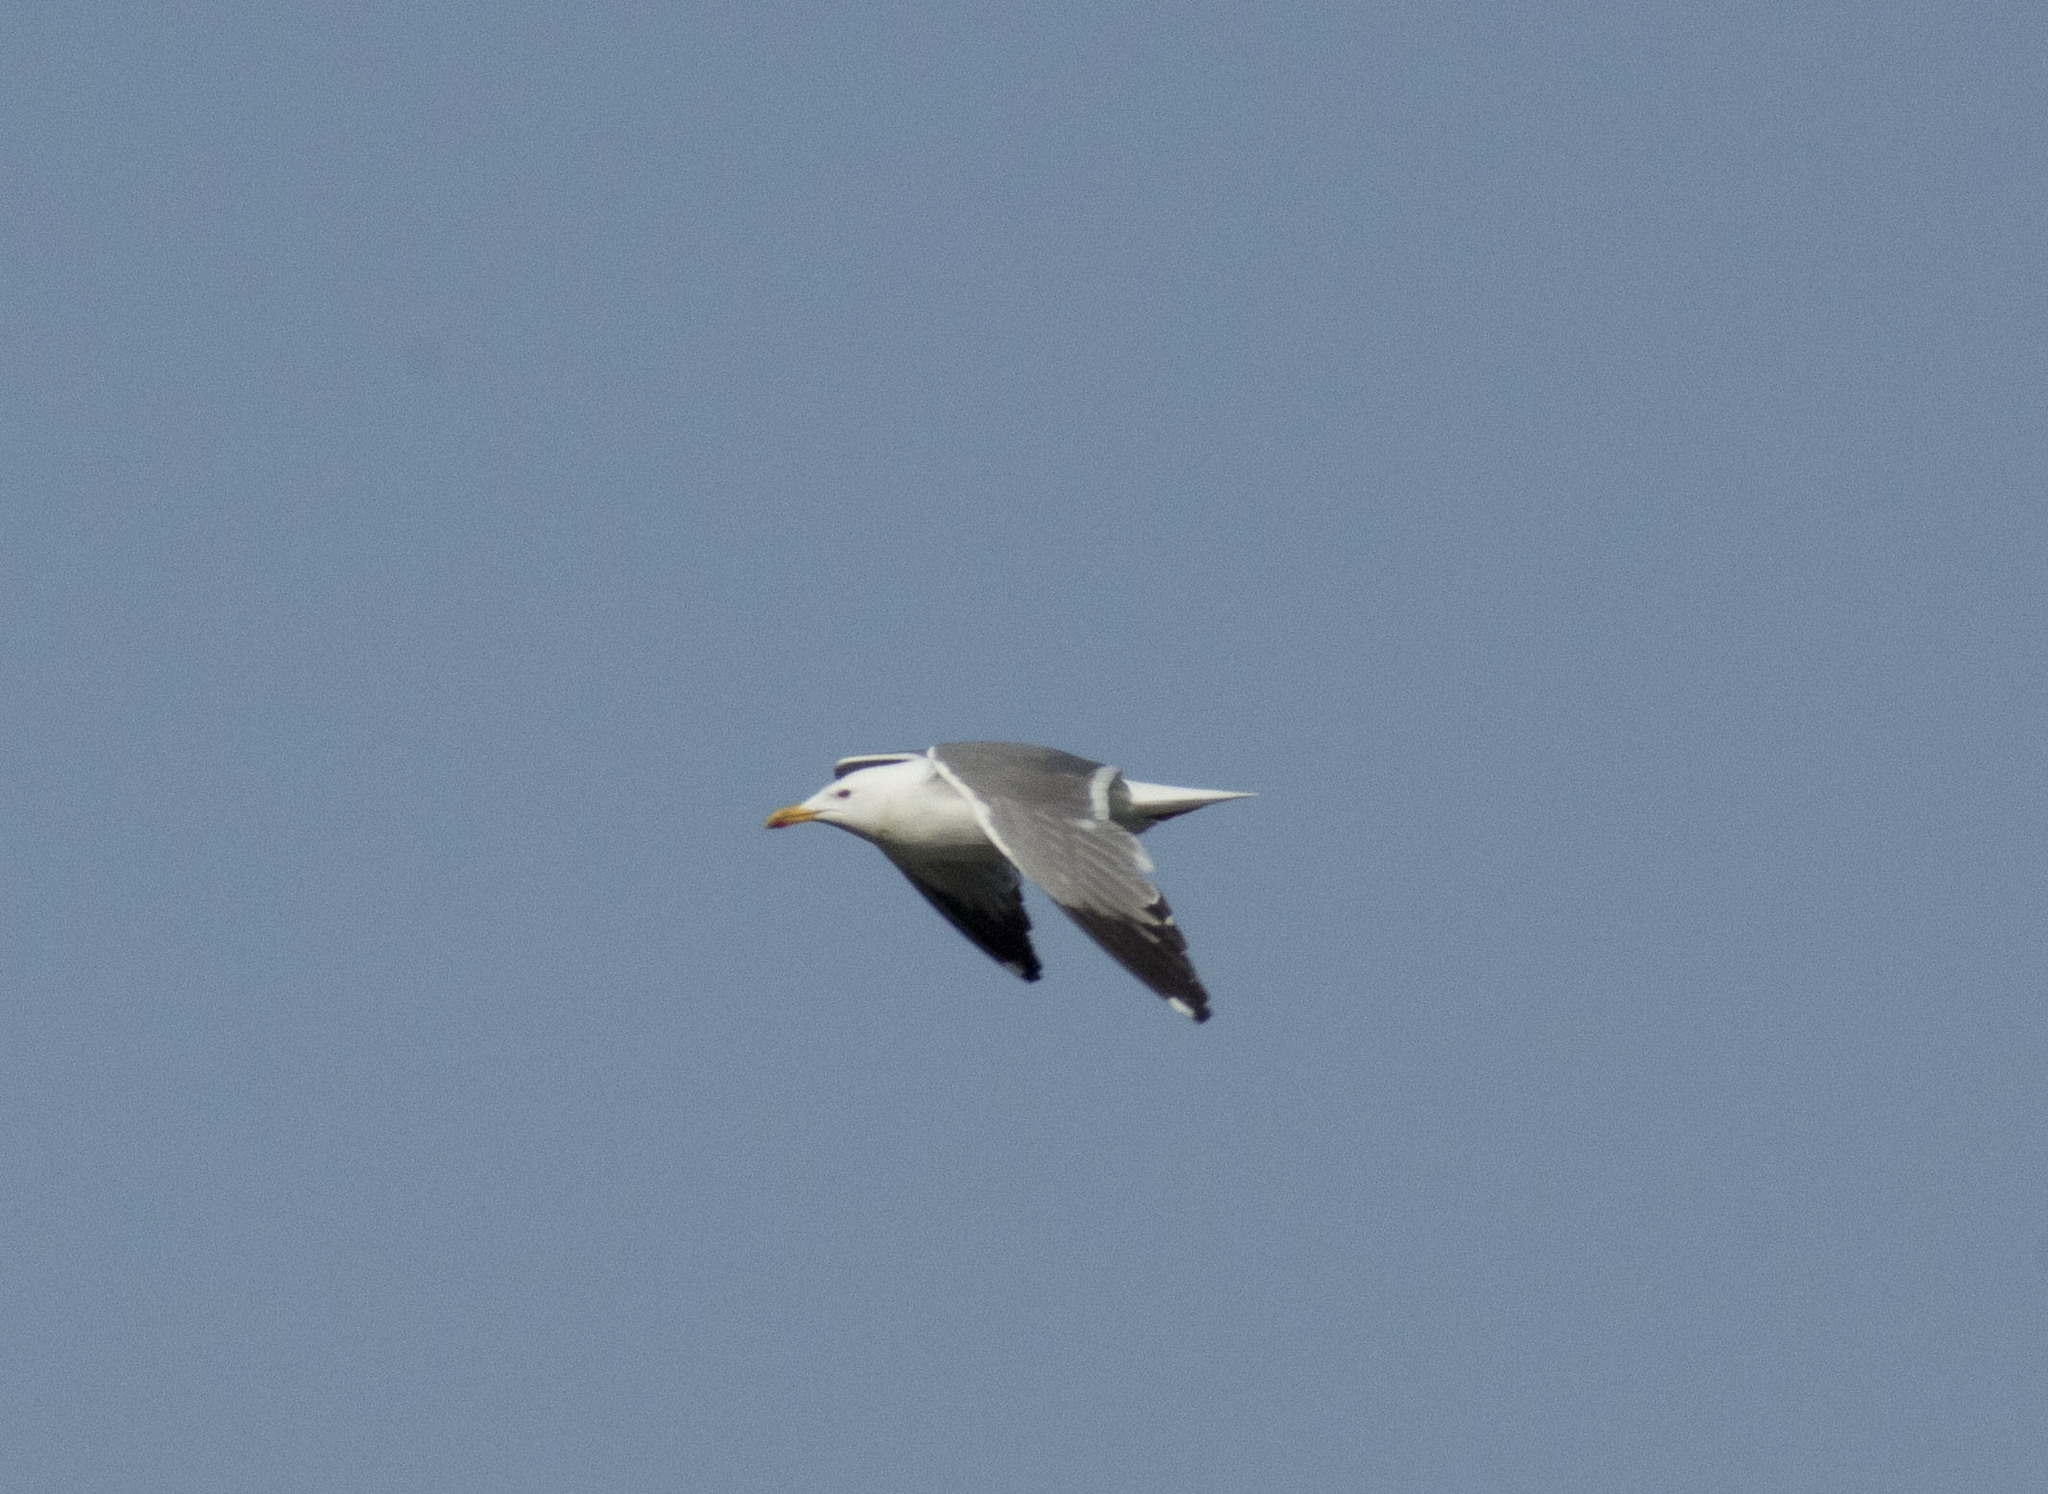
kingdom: Animalia
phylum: Chordata
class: Aves
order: Charadriiformes
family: Laridae
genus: Larus
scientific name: Larus fuscus
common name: Lesser black-backed gull
